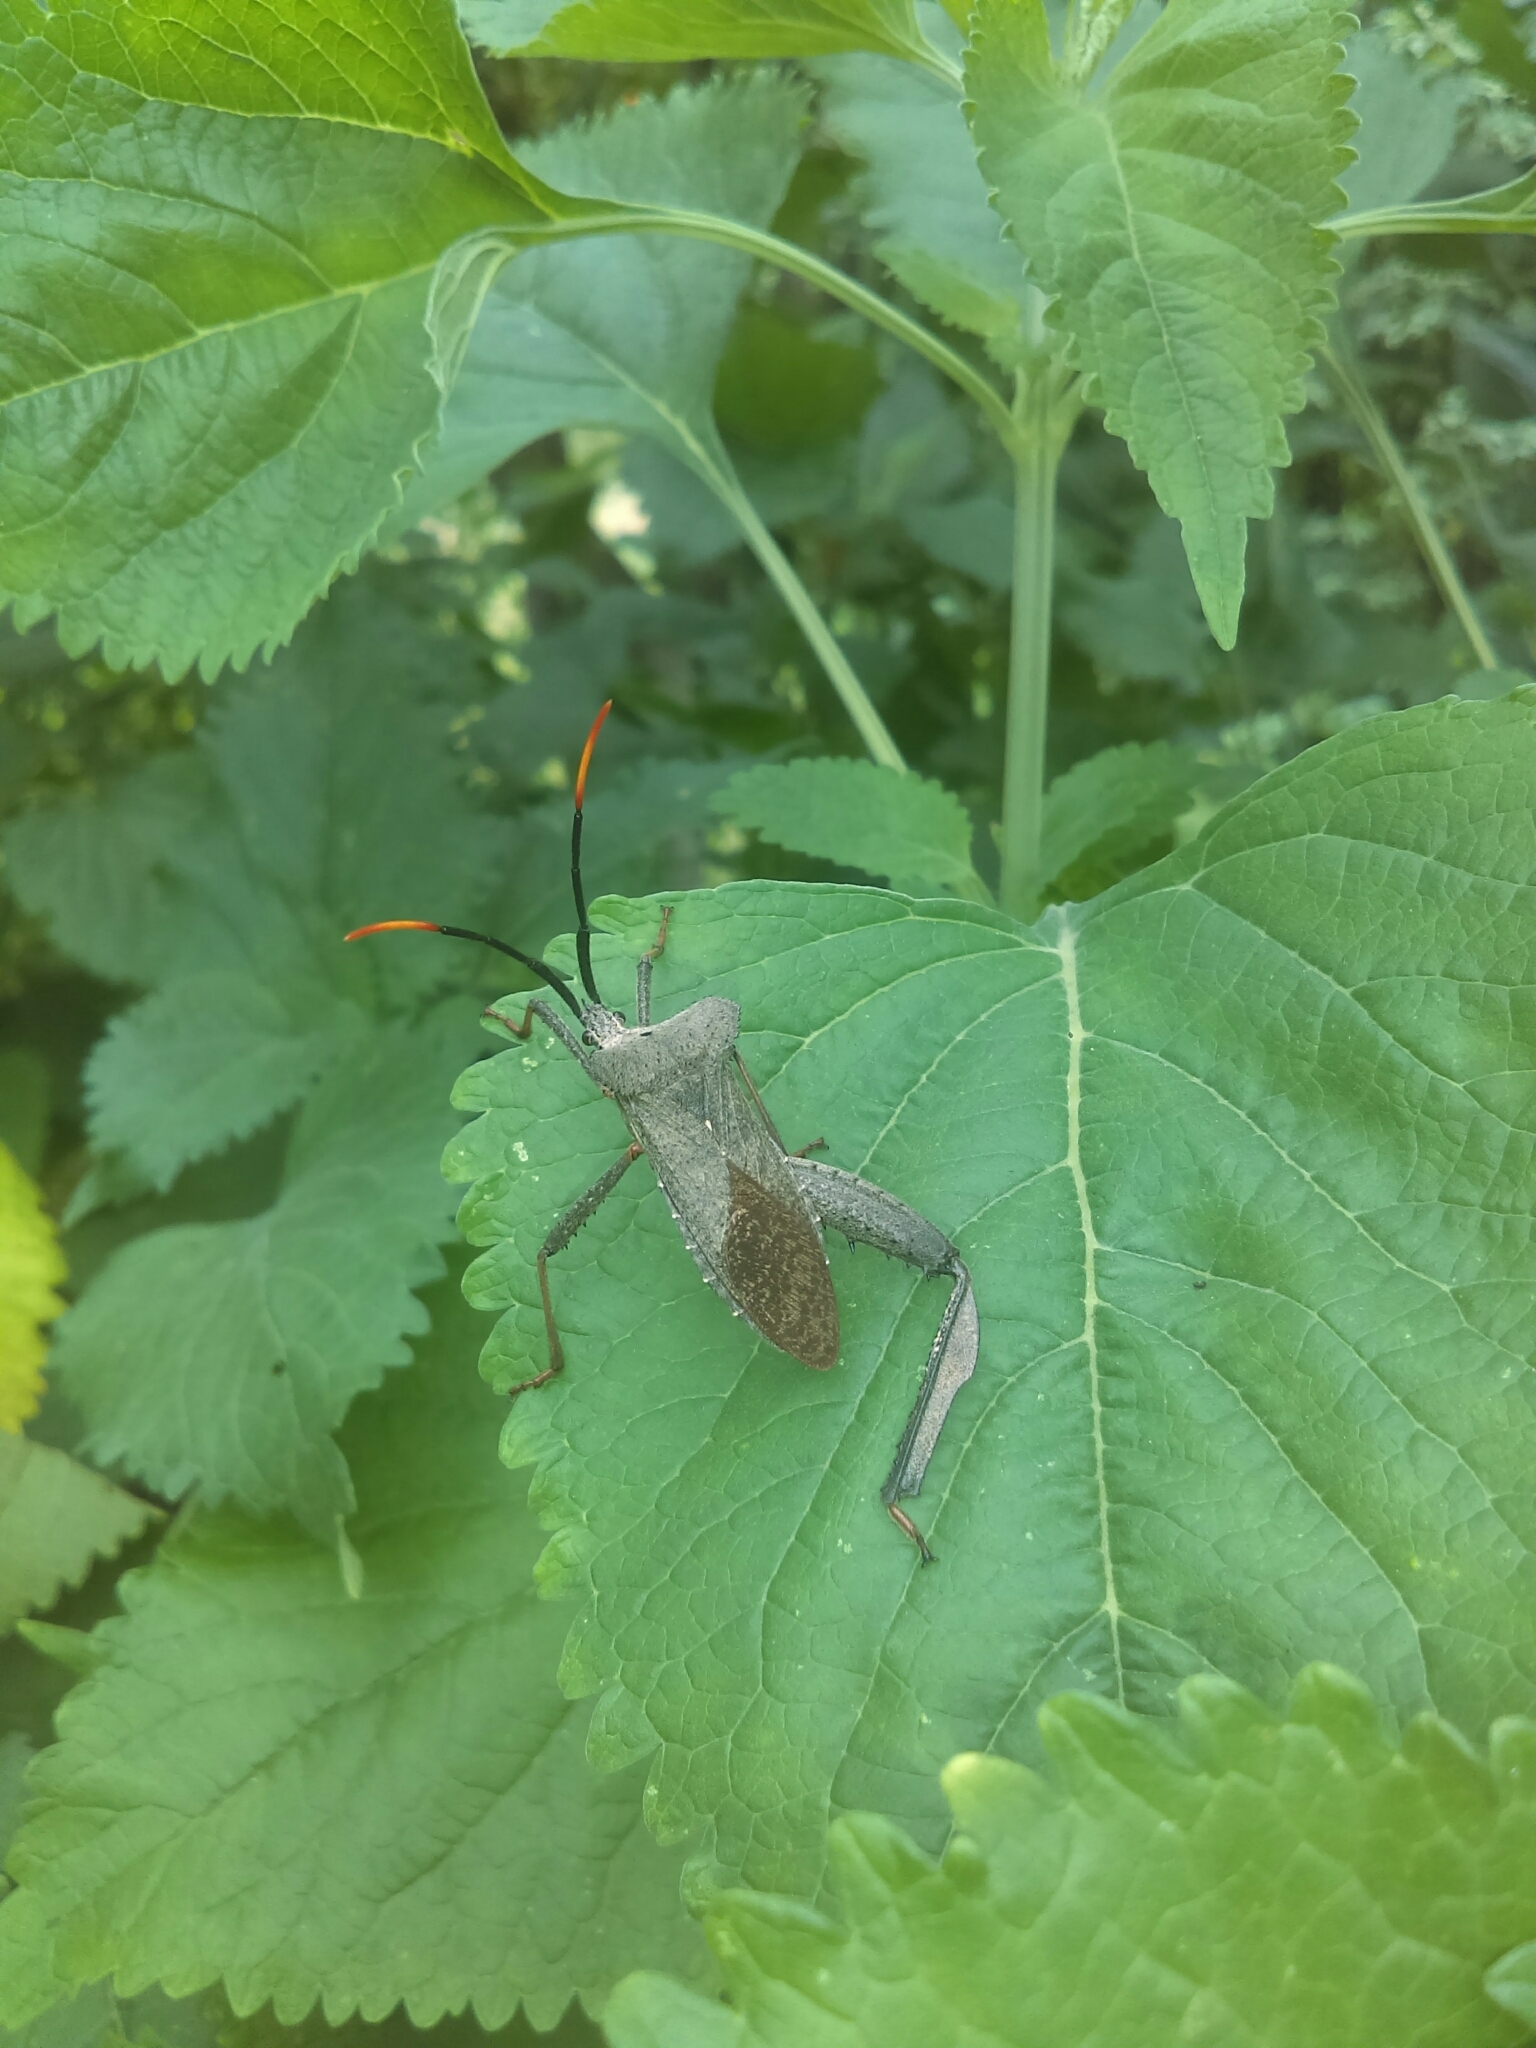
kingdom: Animalia
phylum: Arthropoda
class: Insecta
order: Hemiptera
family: Coreidae
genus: Acanthocephala
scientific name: Acanthocephala alata
